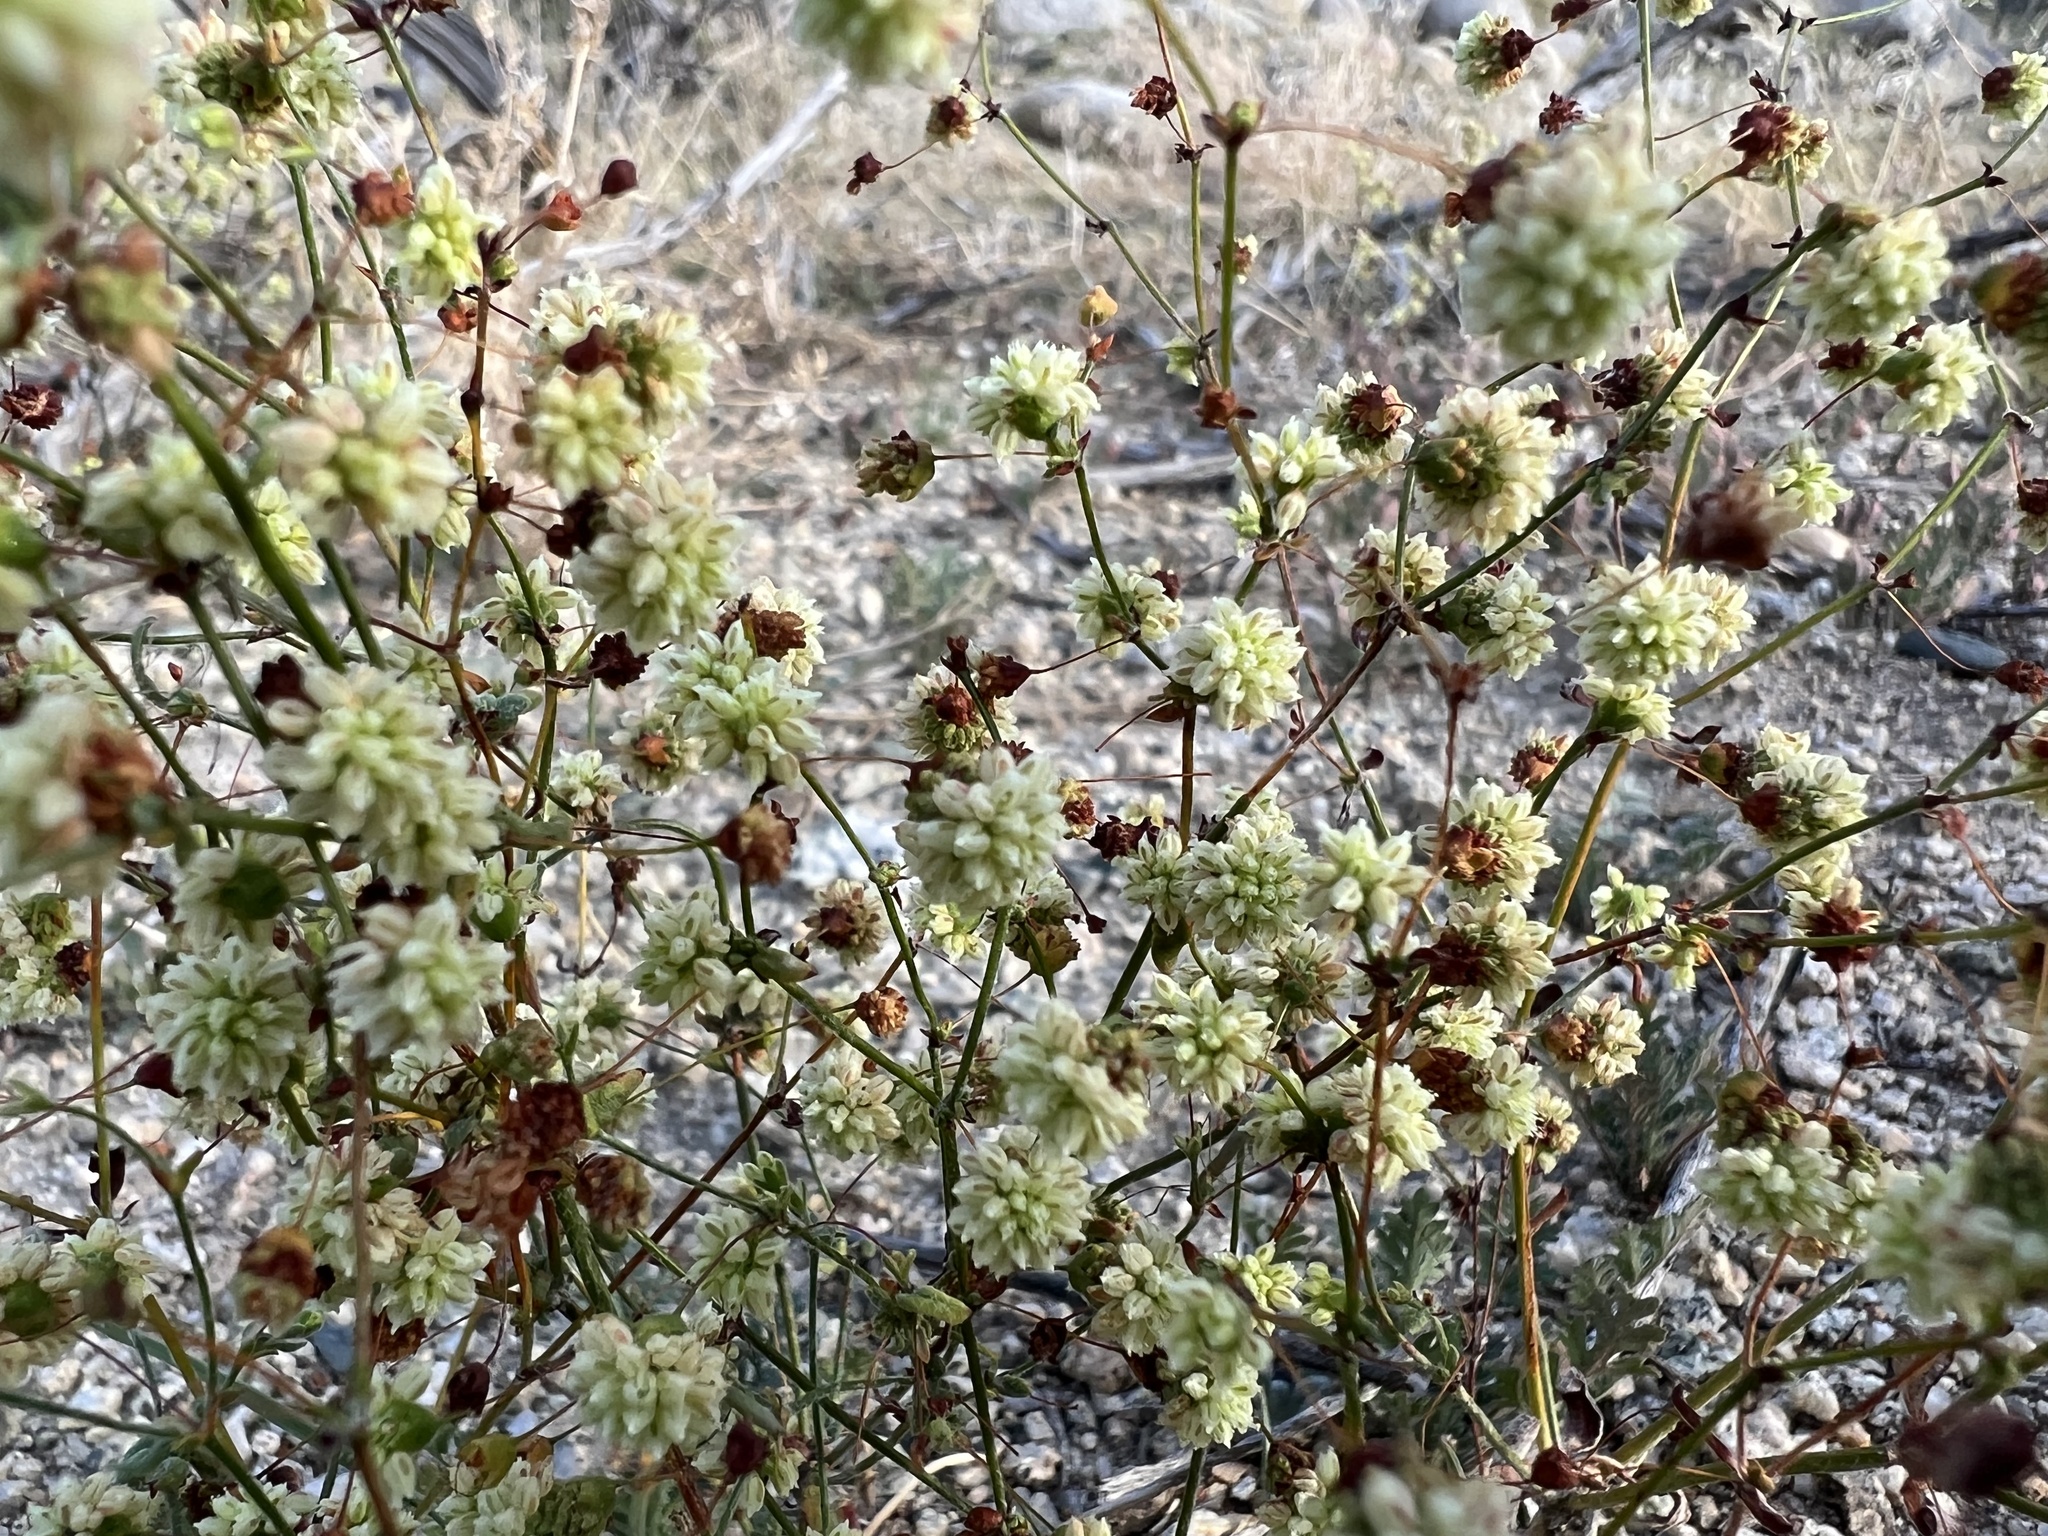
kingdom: Plantae
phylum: Tracheophyta
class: Magnoliopsida
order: Caryophyllales
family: Polygonaceae
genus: Eriogonum
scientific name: Eriogonum maculatum
